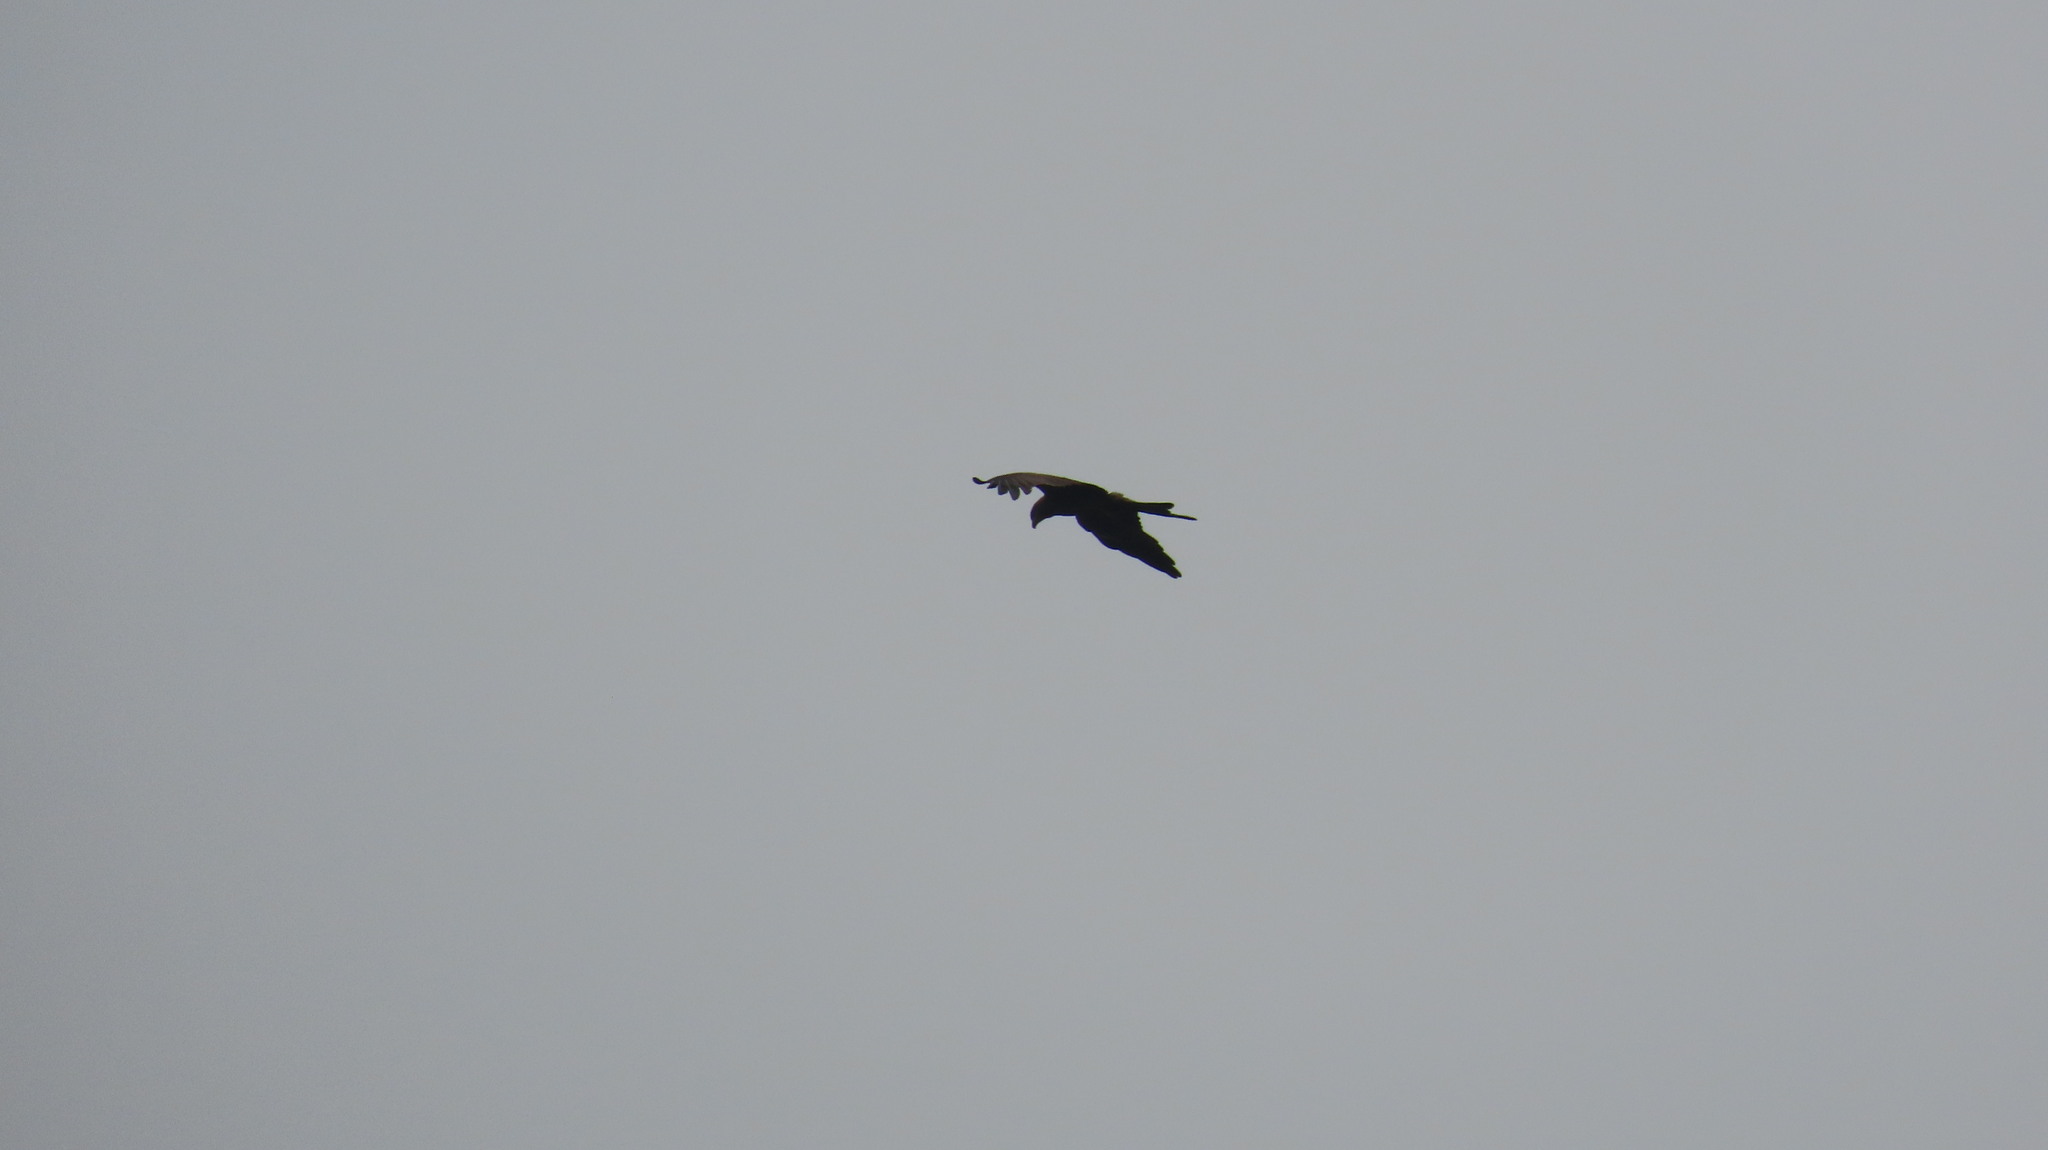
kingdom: Animalia
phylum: Chordata
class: Aves
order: Accipitriformes
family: Accipitridae
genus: Milvus
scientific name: Milvus migrans
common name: Black kite
